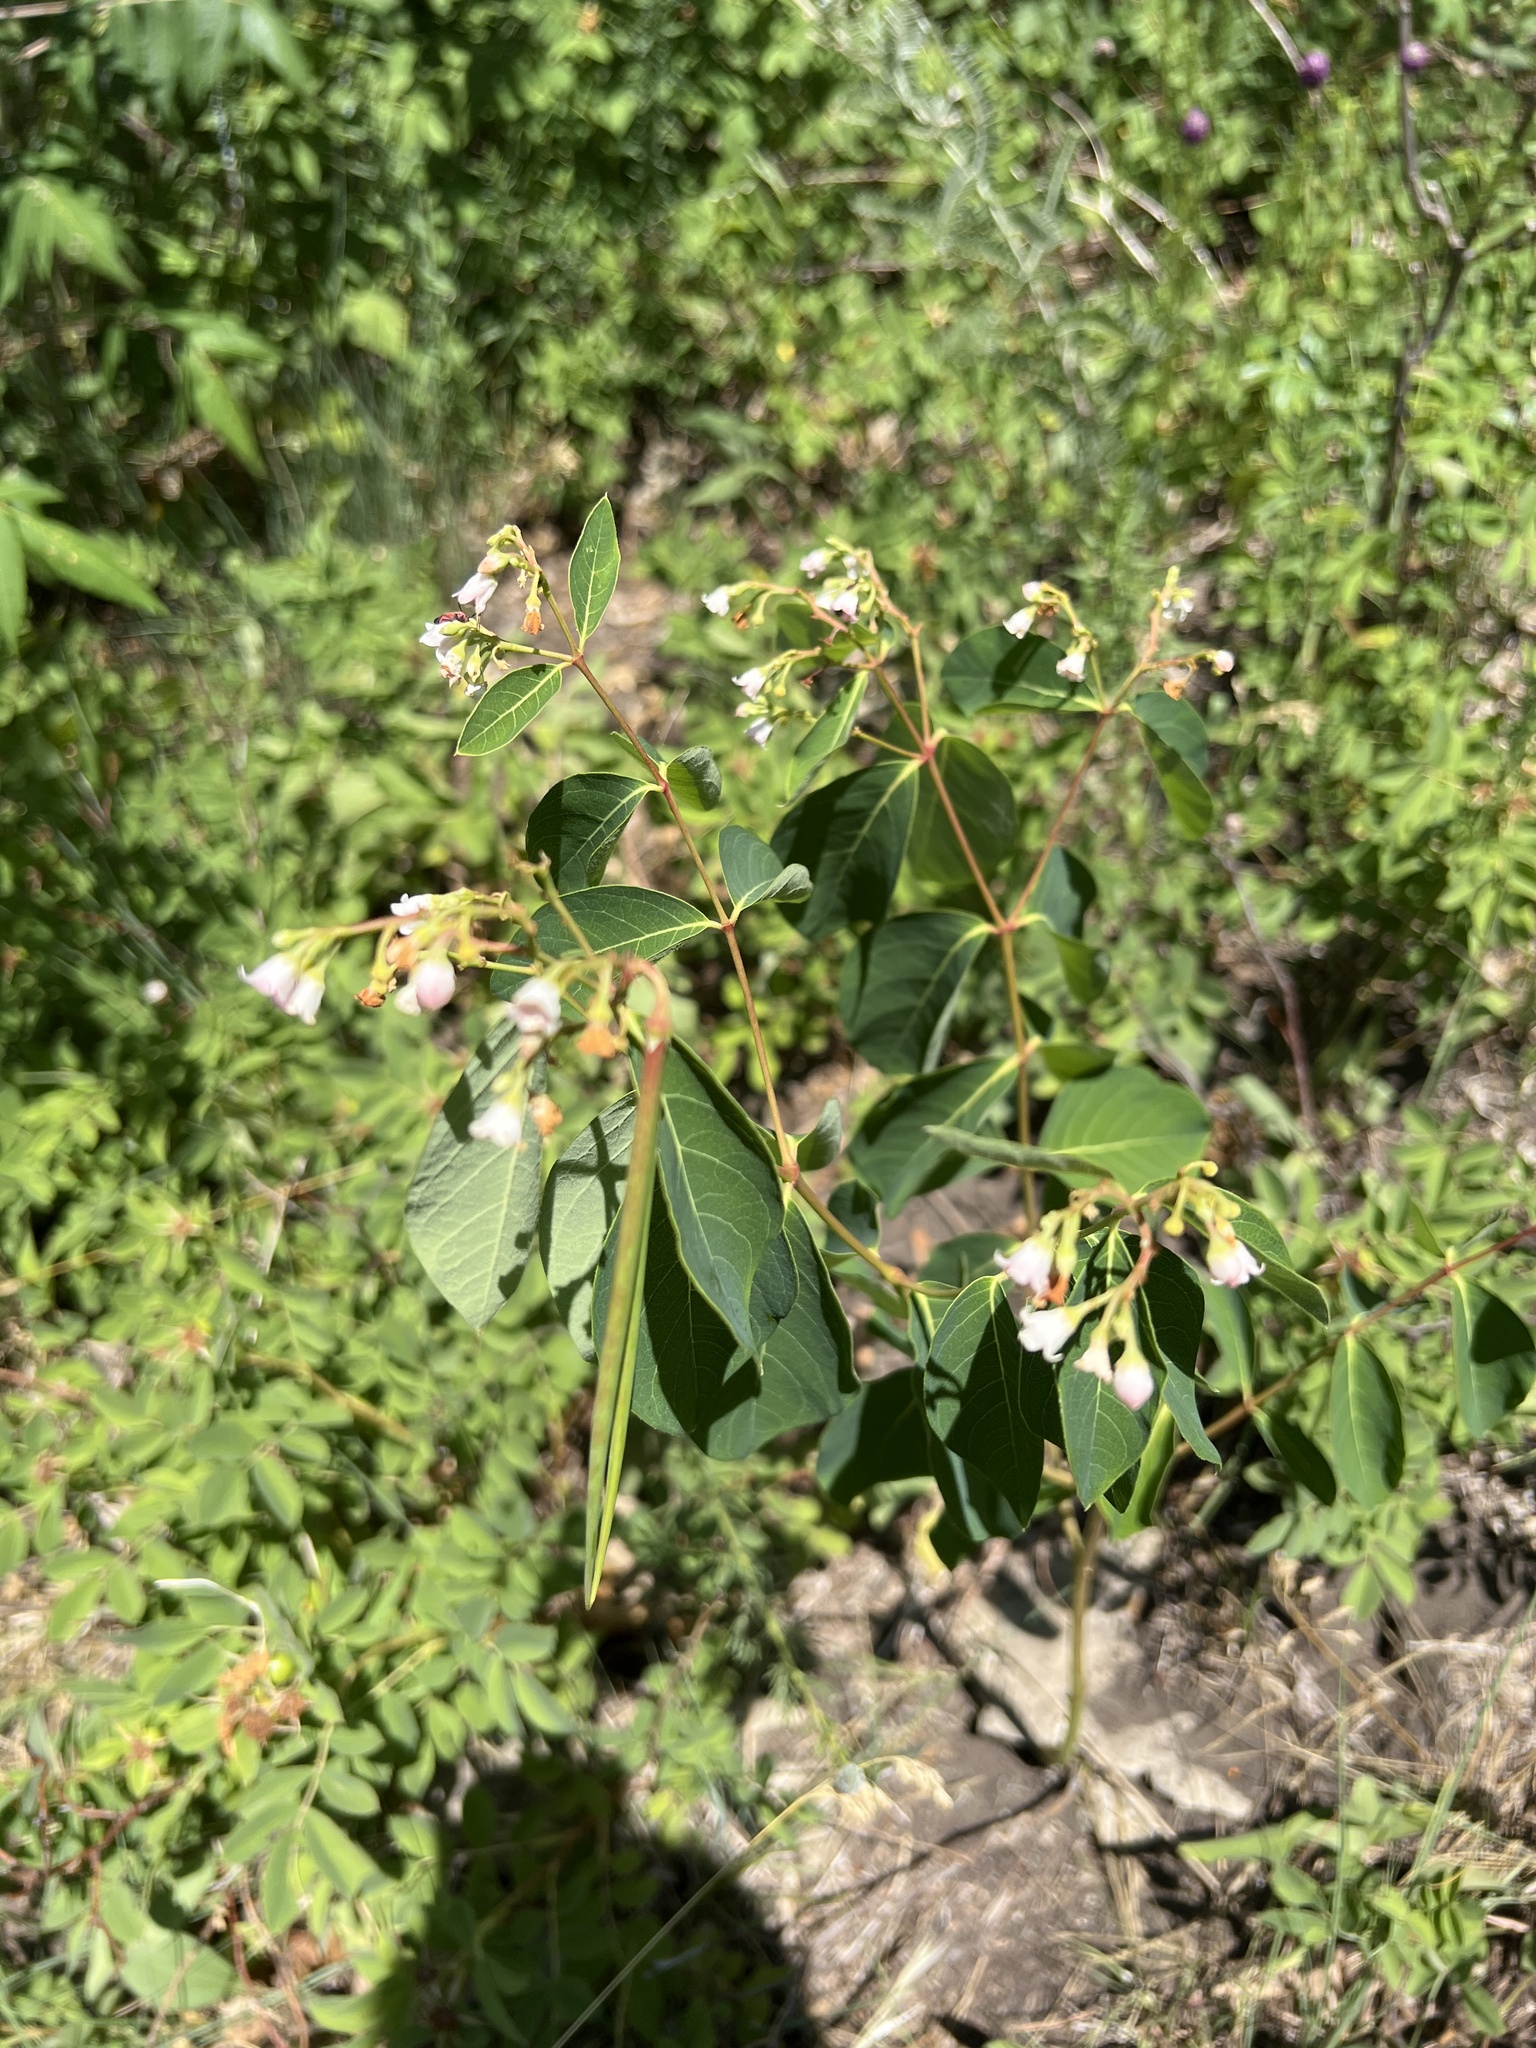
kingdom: Plantae
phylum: Tracheophyta
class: Magnoliopsida
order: Gentianales
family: Apocynaceae
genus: Apocynum
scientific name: Apocynum androsaemifolium
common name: Spreading dogbane
